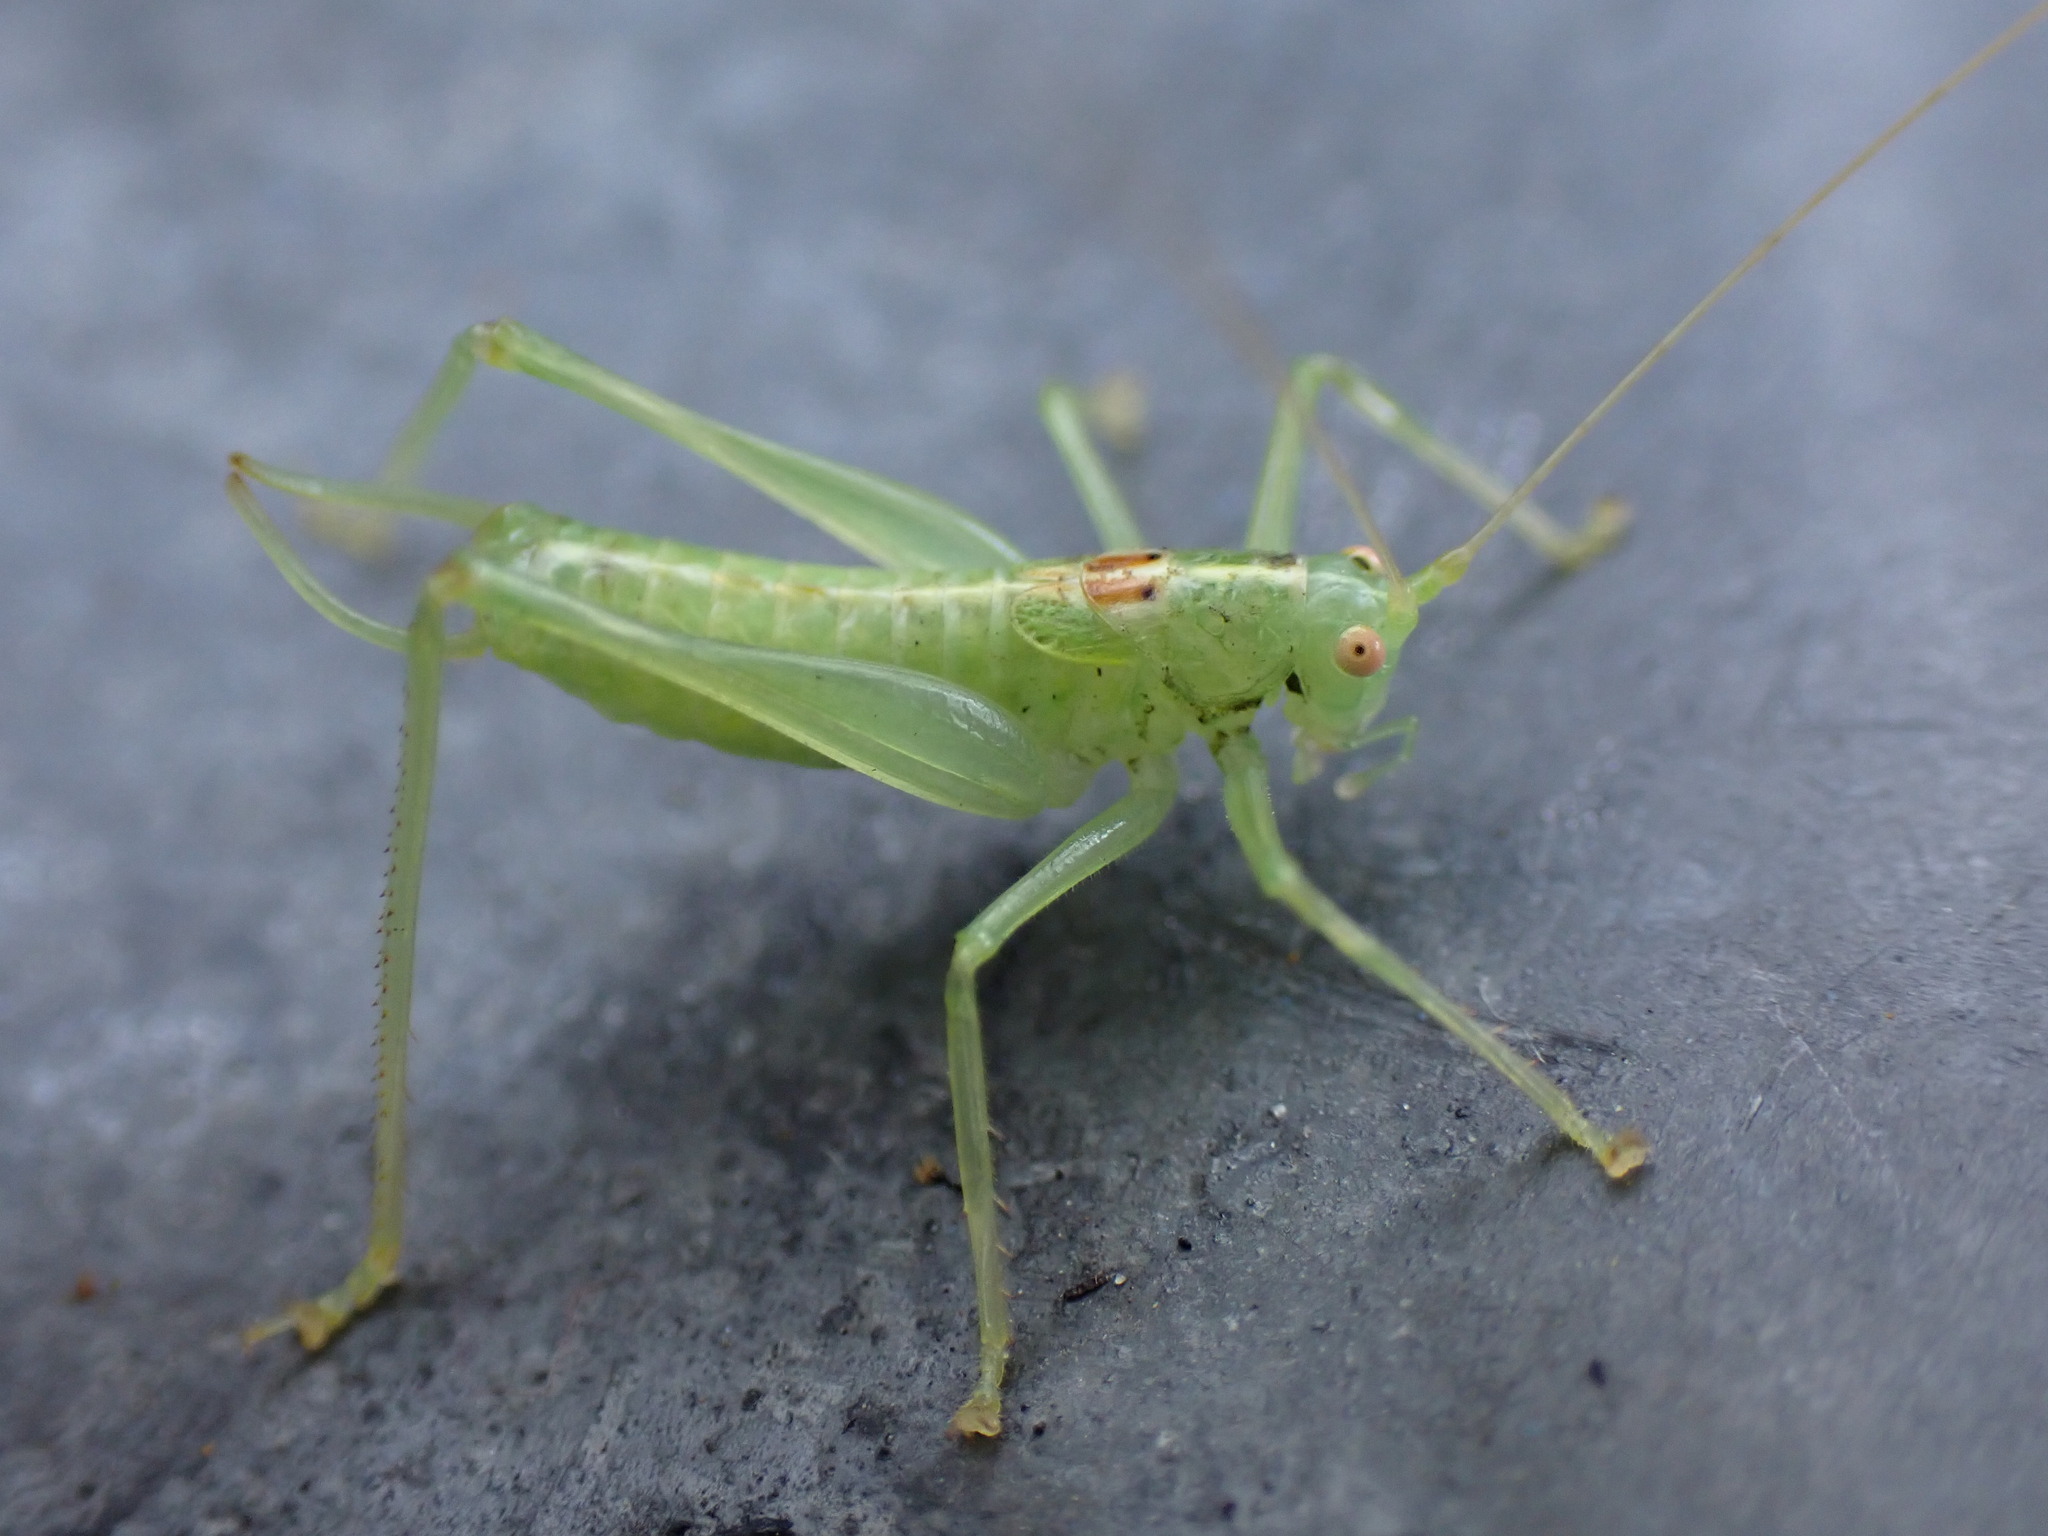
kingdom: Animalia
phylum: Arthropoda
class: Insecta
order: Orthoptera
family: Tettigoniidae
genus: Meconema
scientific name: Meconema meridionale
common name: Southern oak bush-cricket
